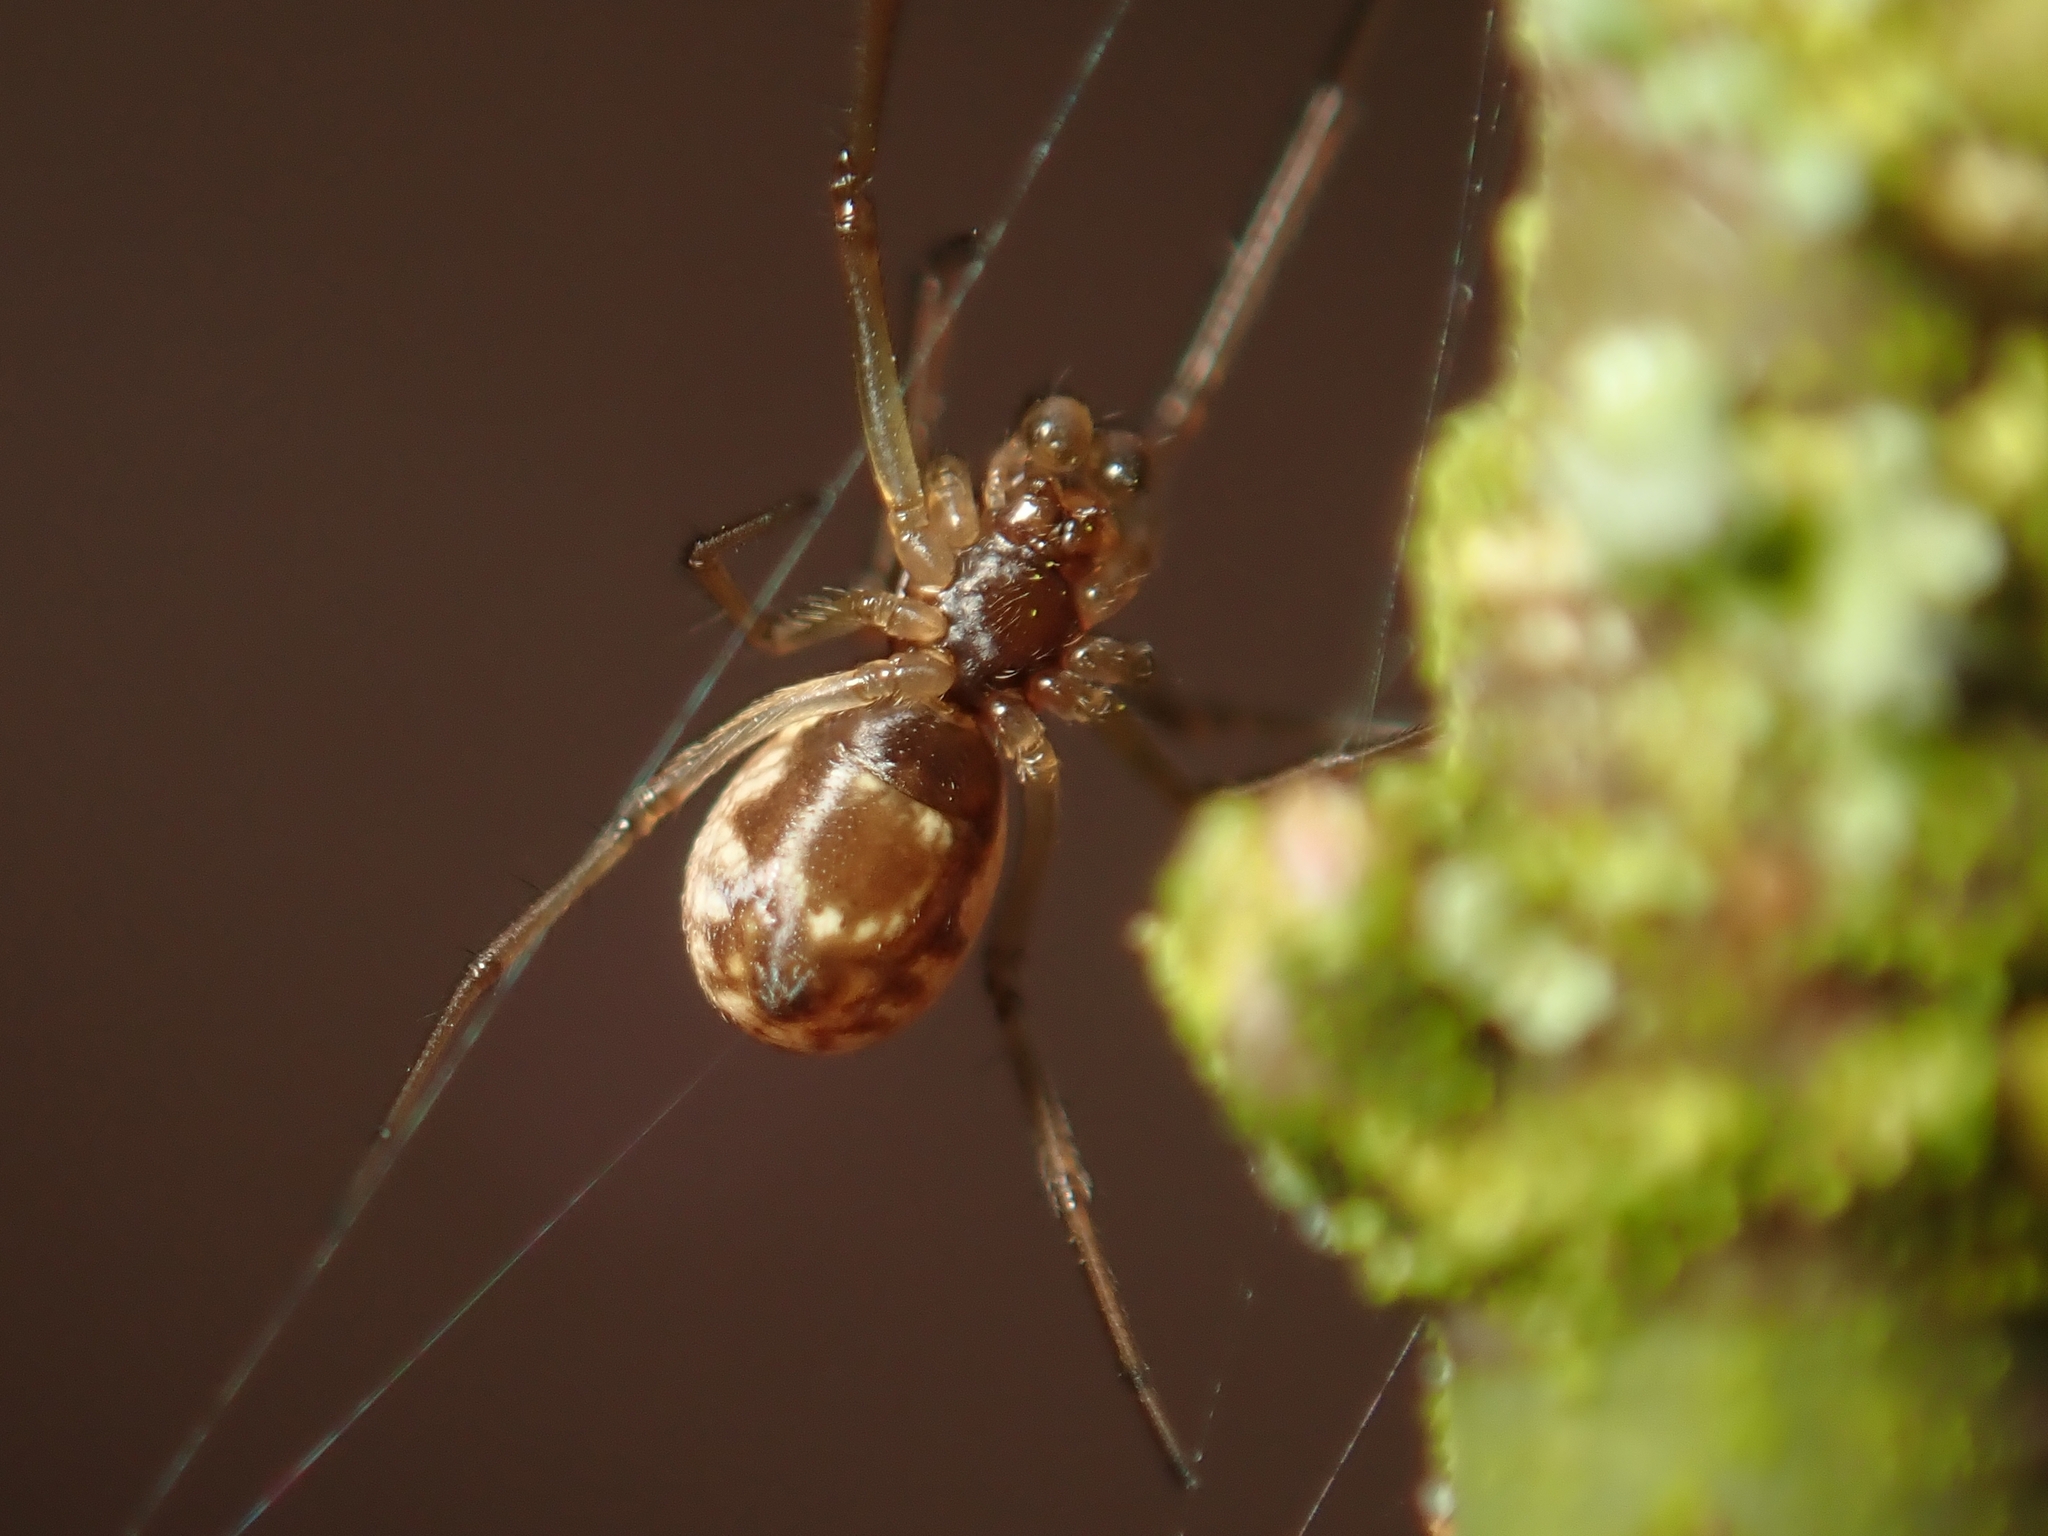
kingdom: Animalia
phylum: Arthropoda
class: Arachnida
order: Araneae
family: Linyphiidae
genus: Neriene
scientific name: Neriene peltata
